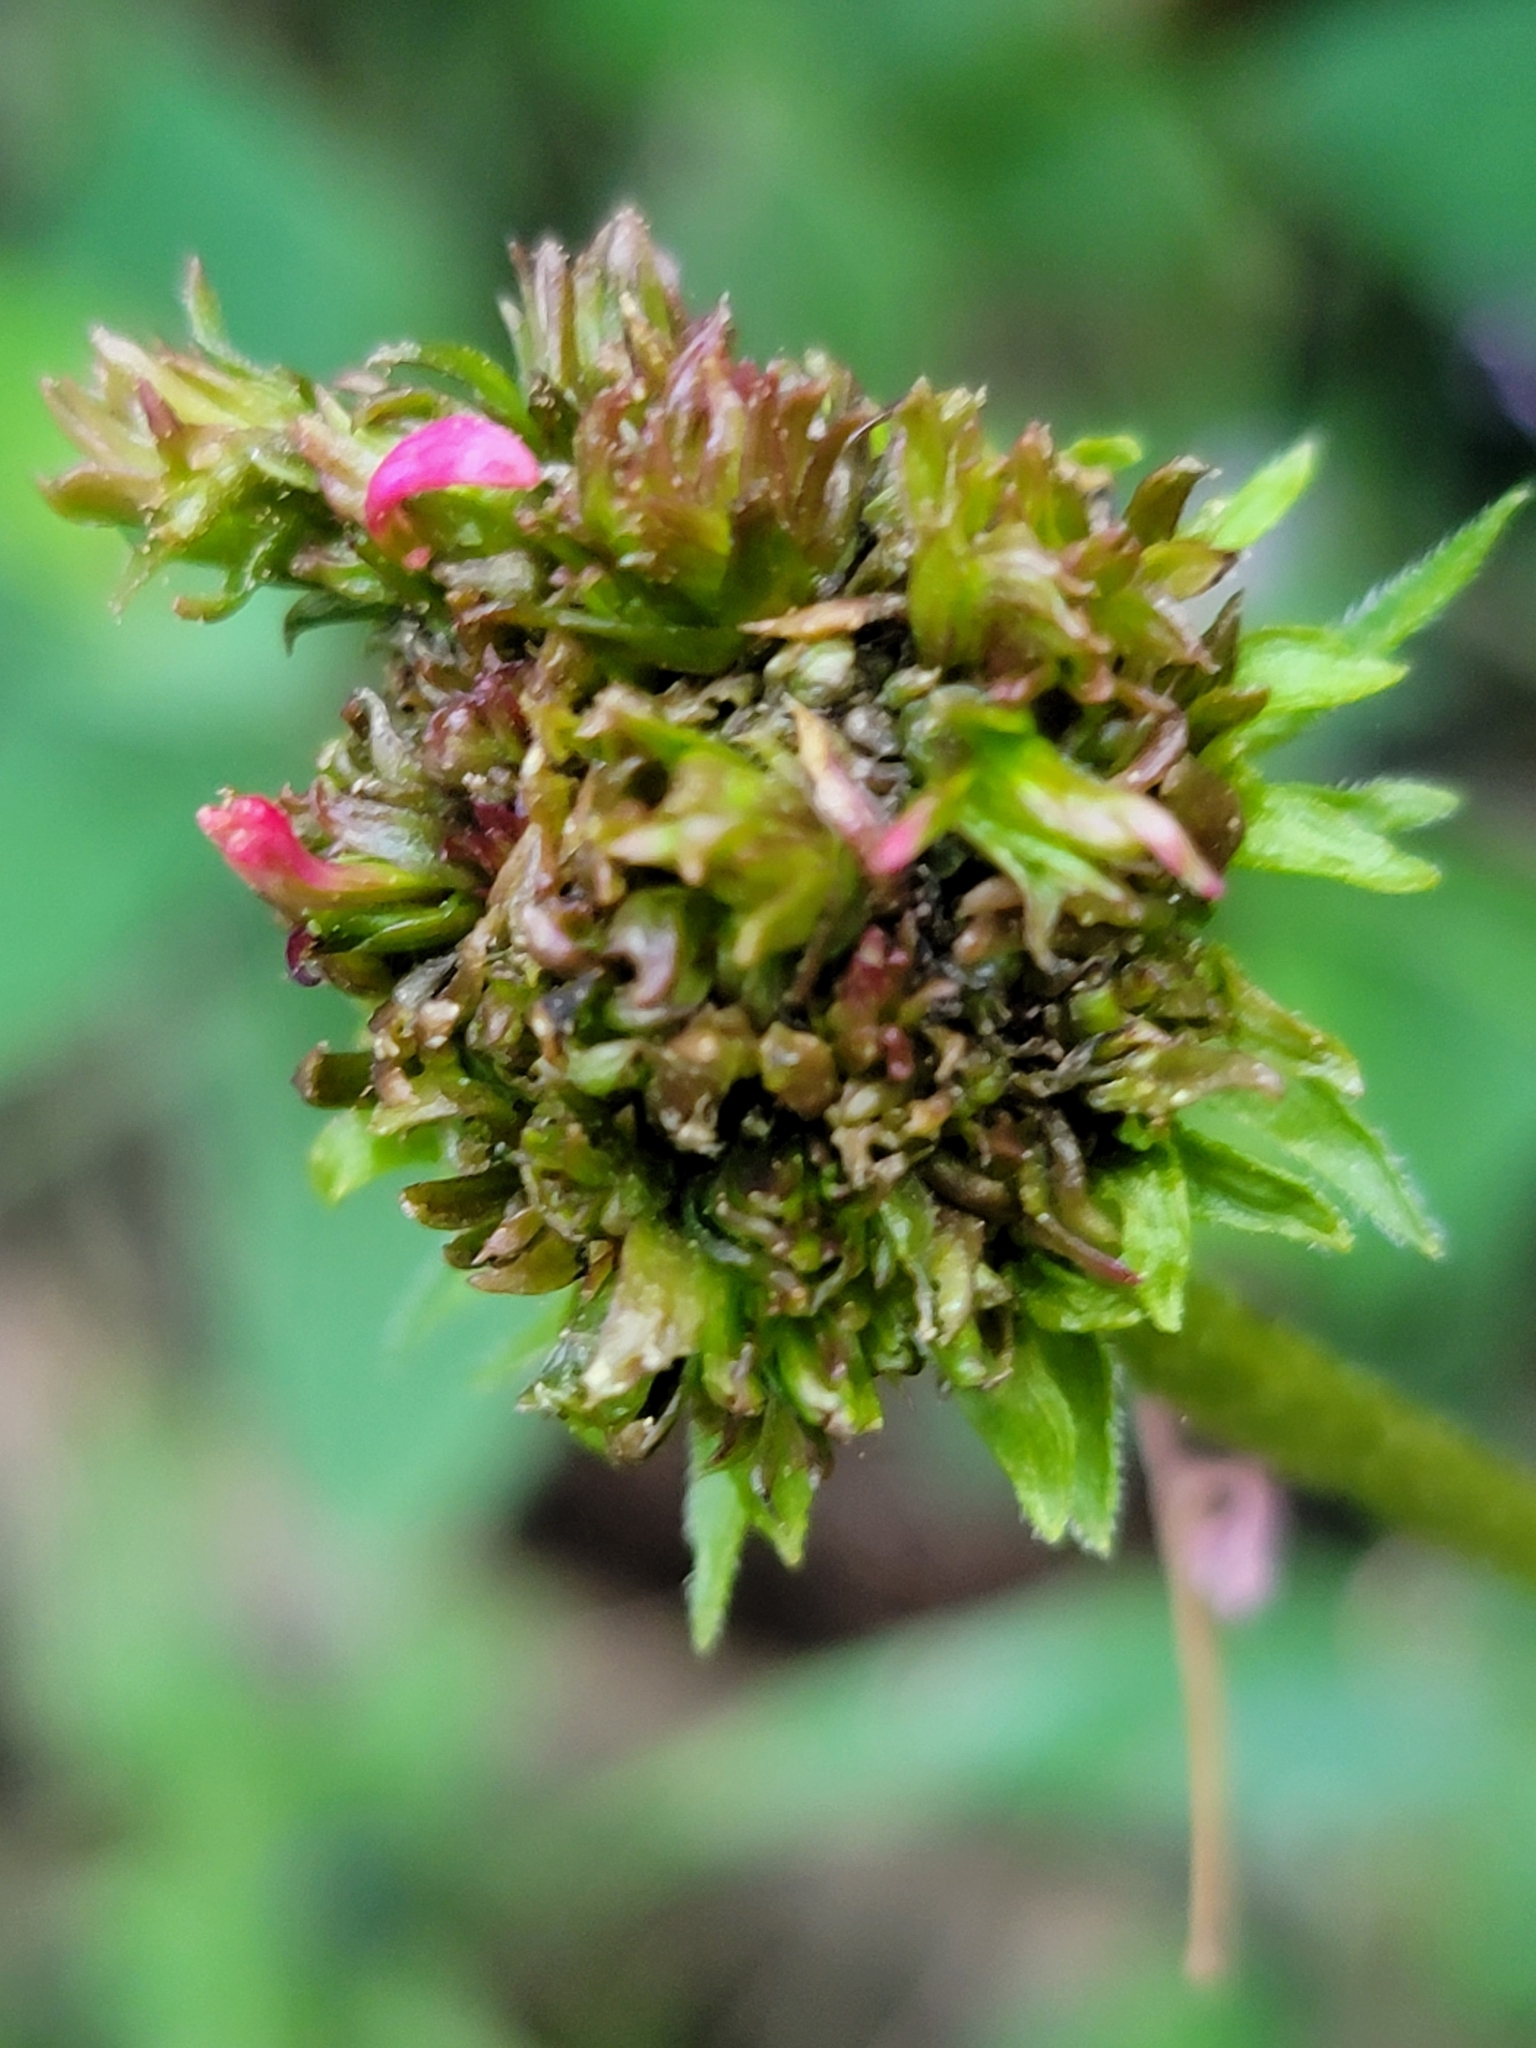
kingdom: Bacteria
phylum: Firmicutes
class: Bacilli
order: Acholeplasmatales
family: Acholeplasmataceae
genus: Phytoplasma
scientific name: Phytoplasma
